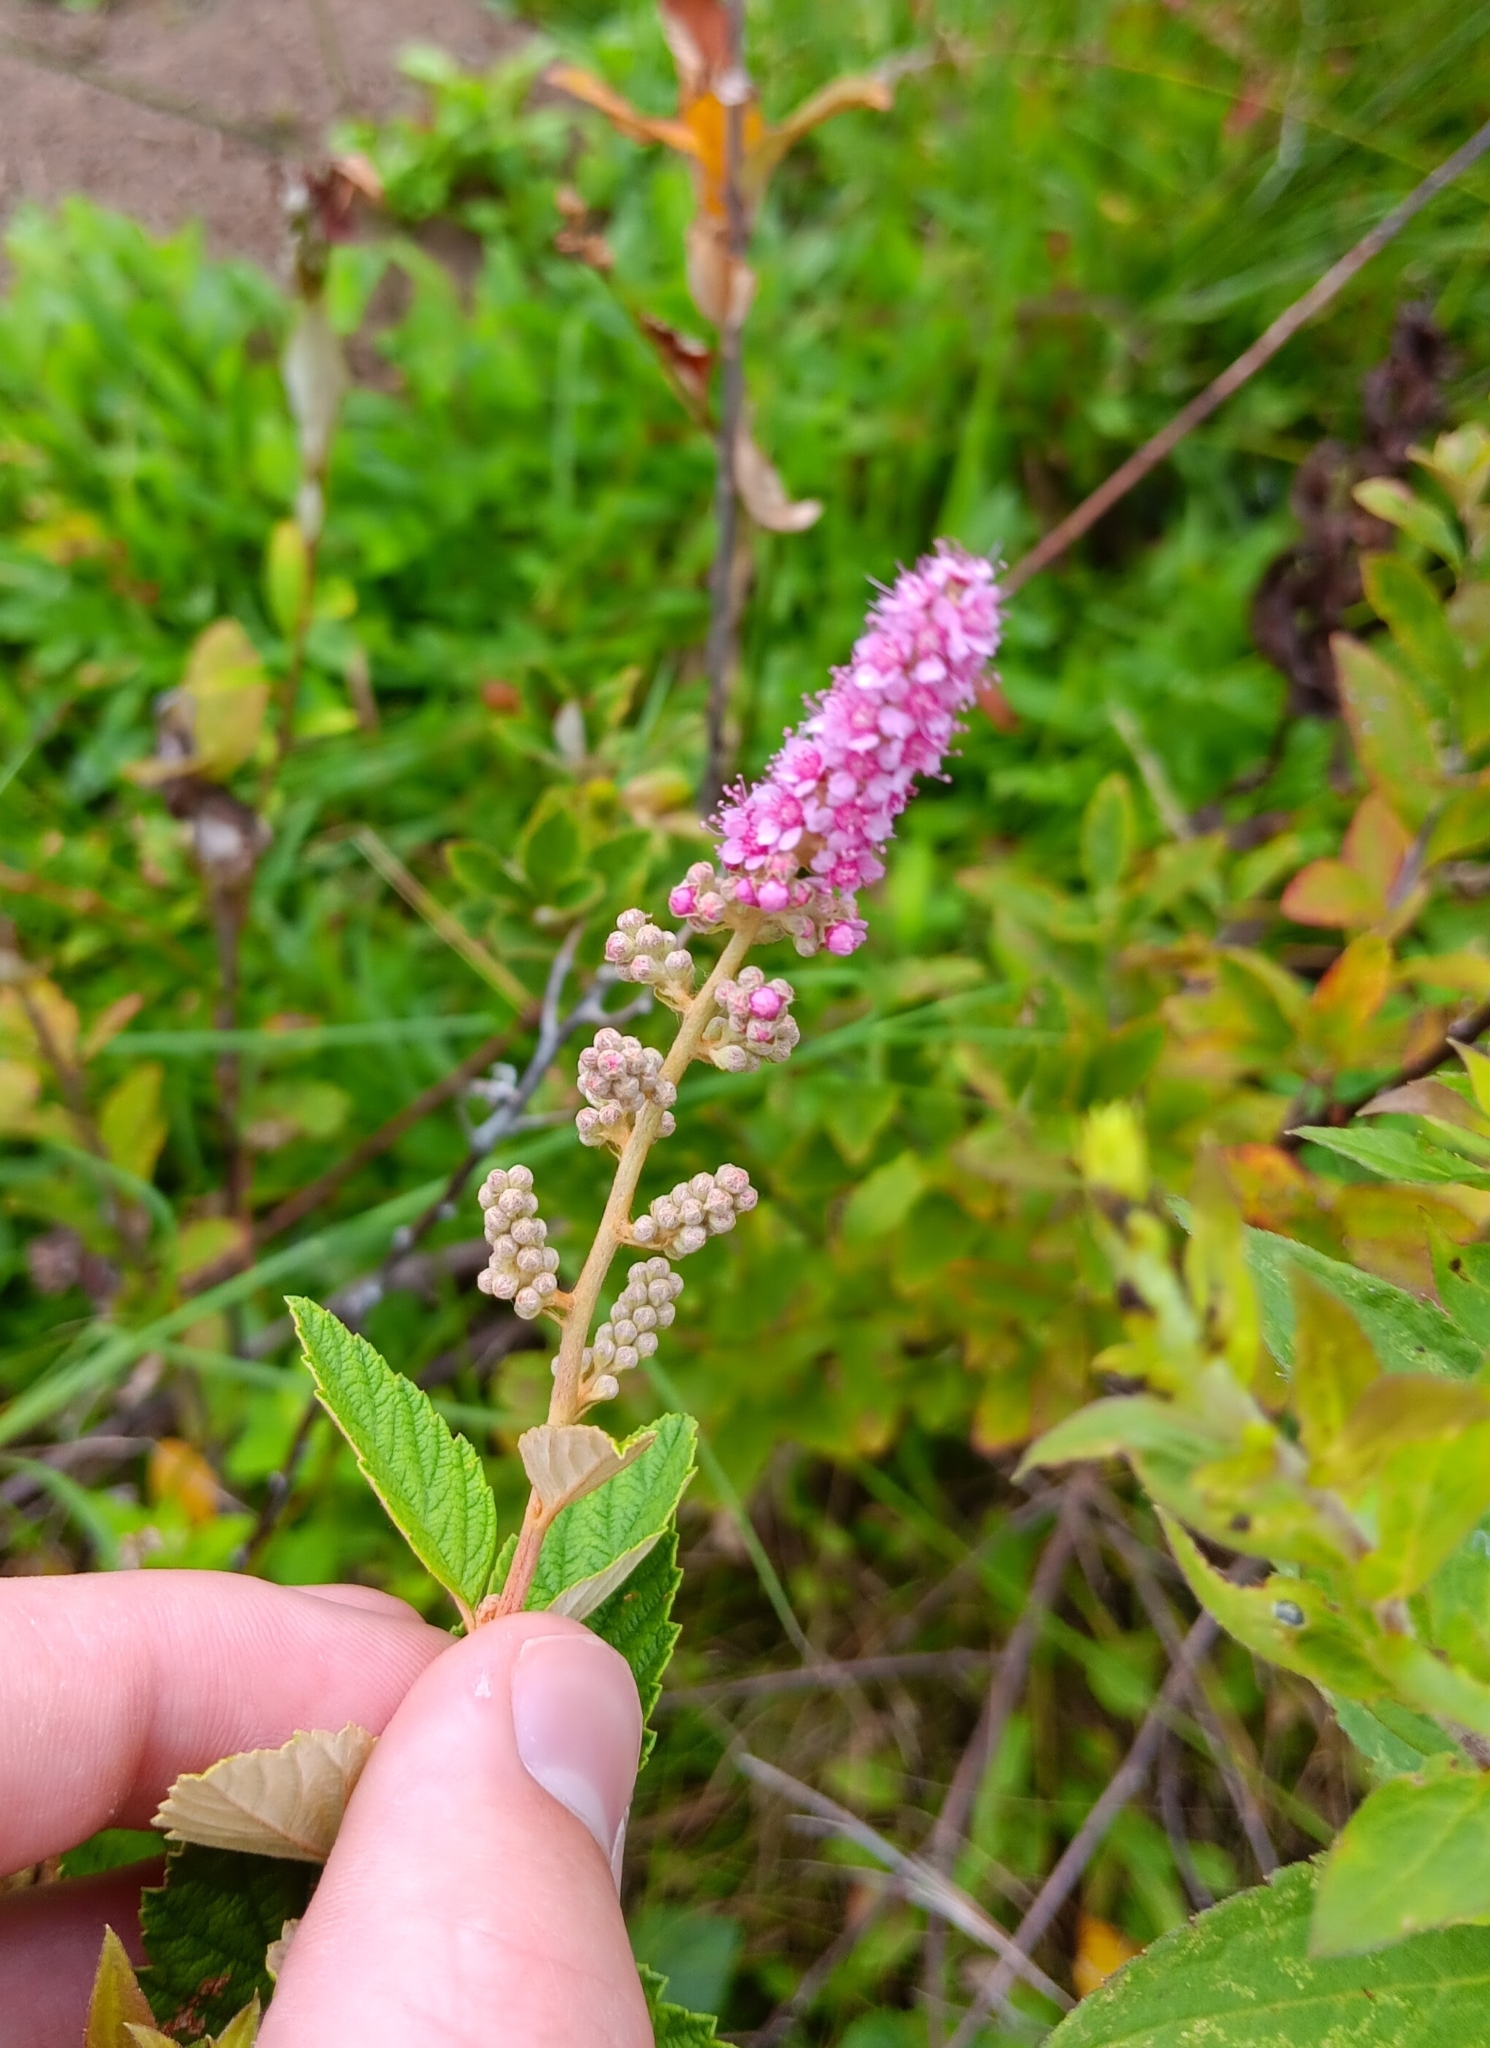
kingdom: Plantae
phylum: Tracheophyta
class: Magnoliopsida
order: Rosales
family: Rosaceae
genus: Spiraea
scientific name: Spiraea tomentosa
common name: Hardhack
